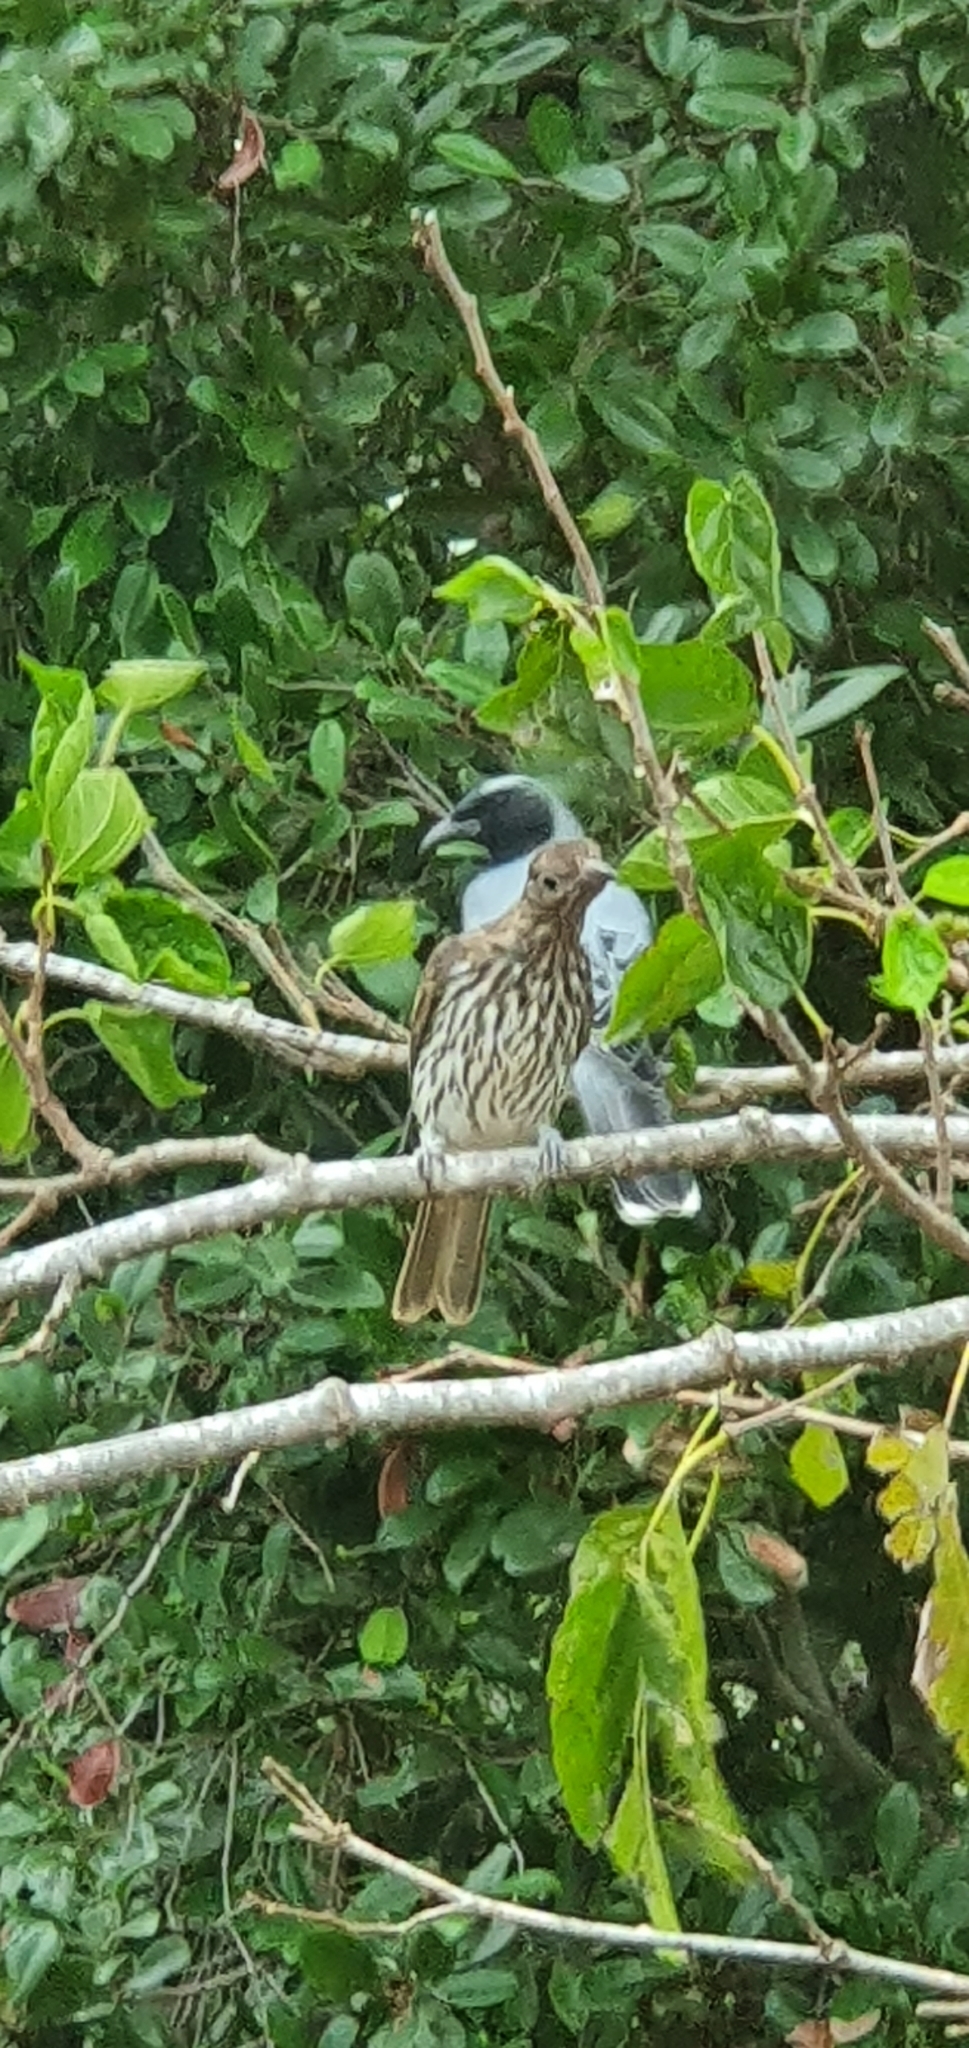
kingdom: Animalia
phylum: Chordata
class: Aves
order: Passeriformes
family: Campephagidae
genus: Coracina
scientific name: Coracina novaehollandiae
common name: Black-faced cuckooshrike
